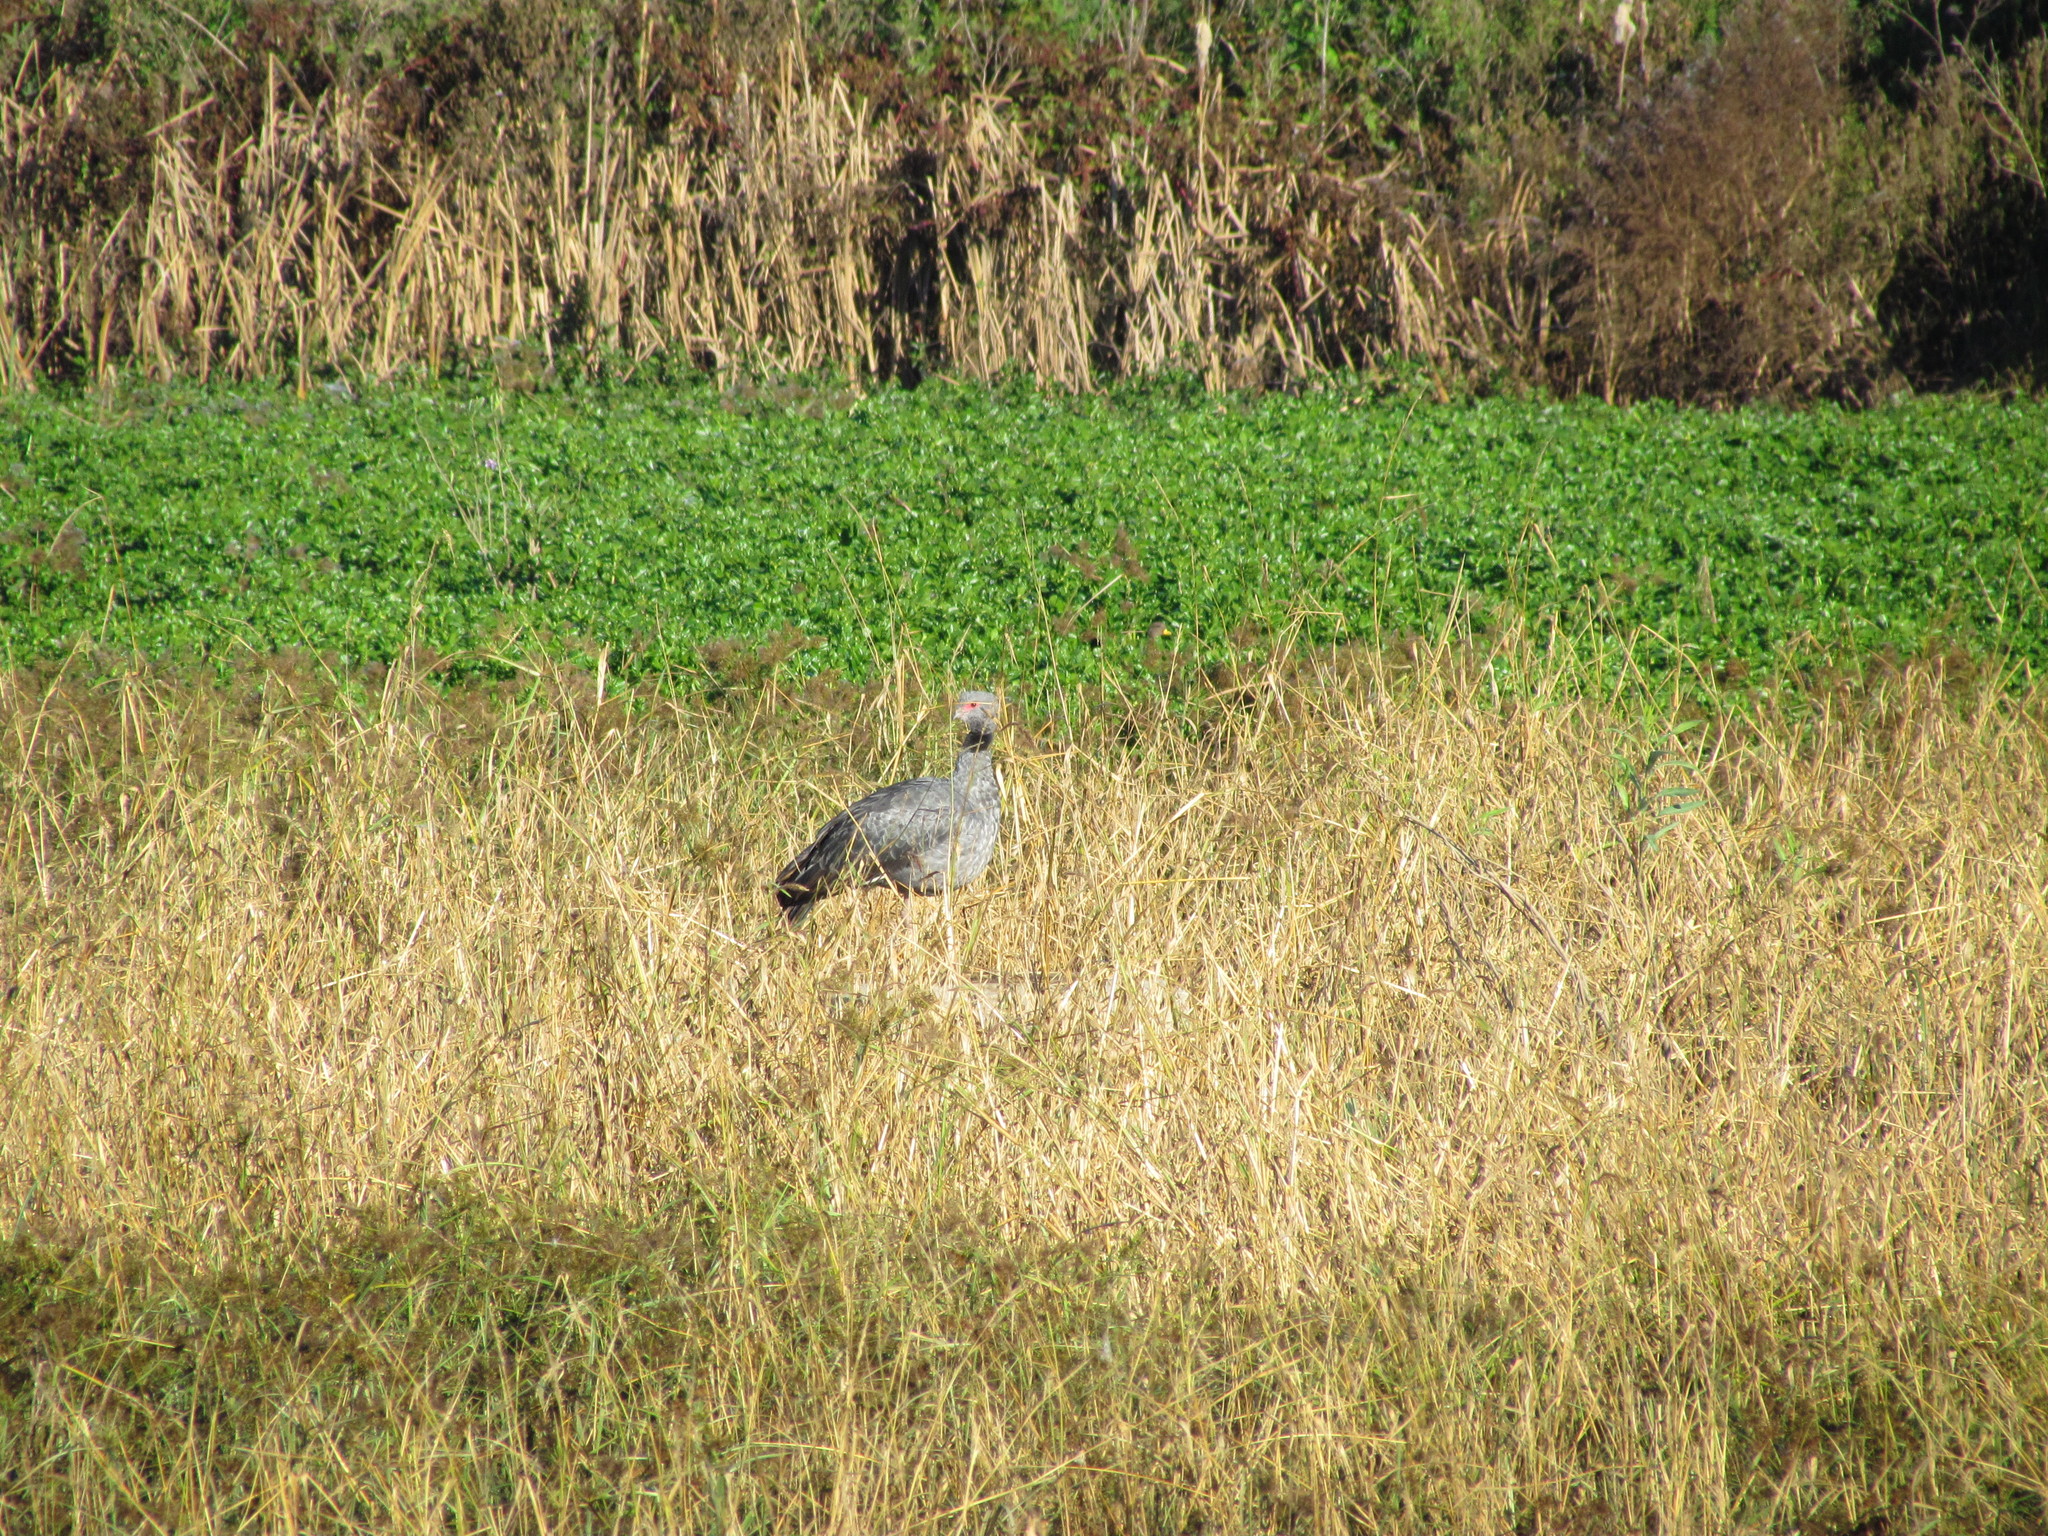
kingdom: Animalia
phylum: Chordata
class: Aves
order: Anseriformes
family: Anhimidae
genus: Chauna
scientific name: Chauna torquata
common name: Southern screamer
